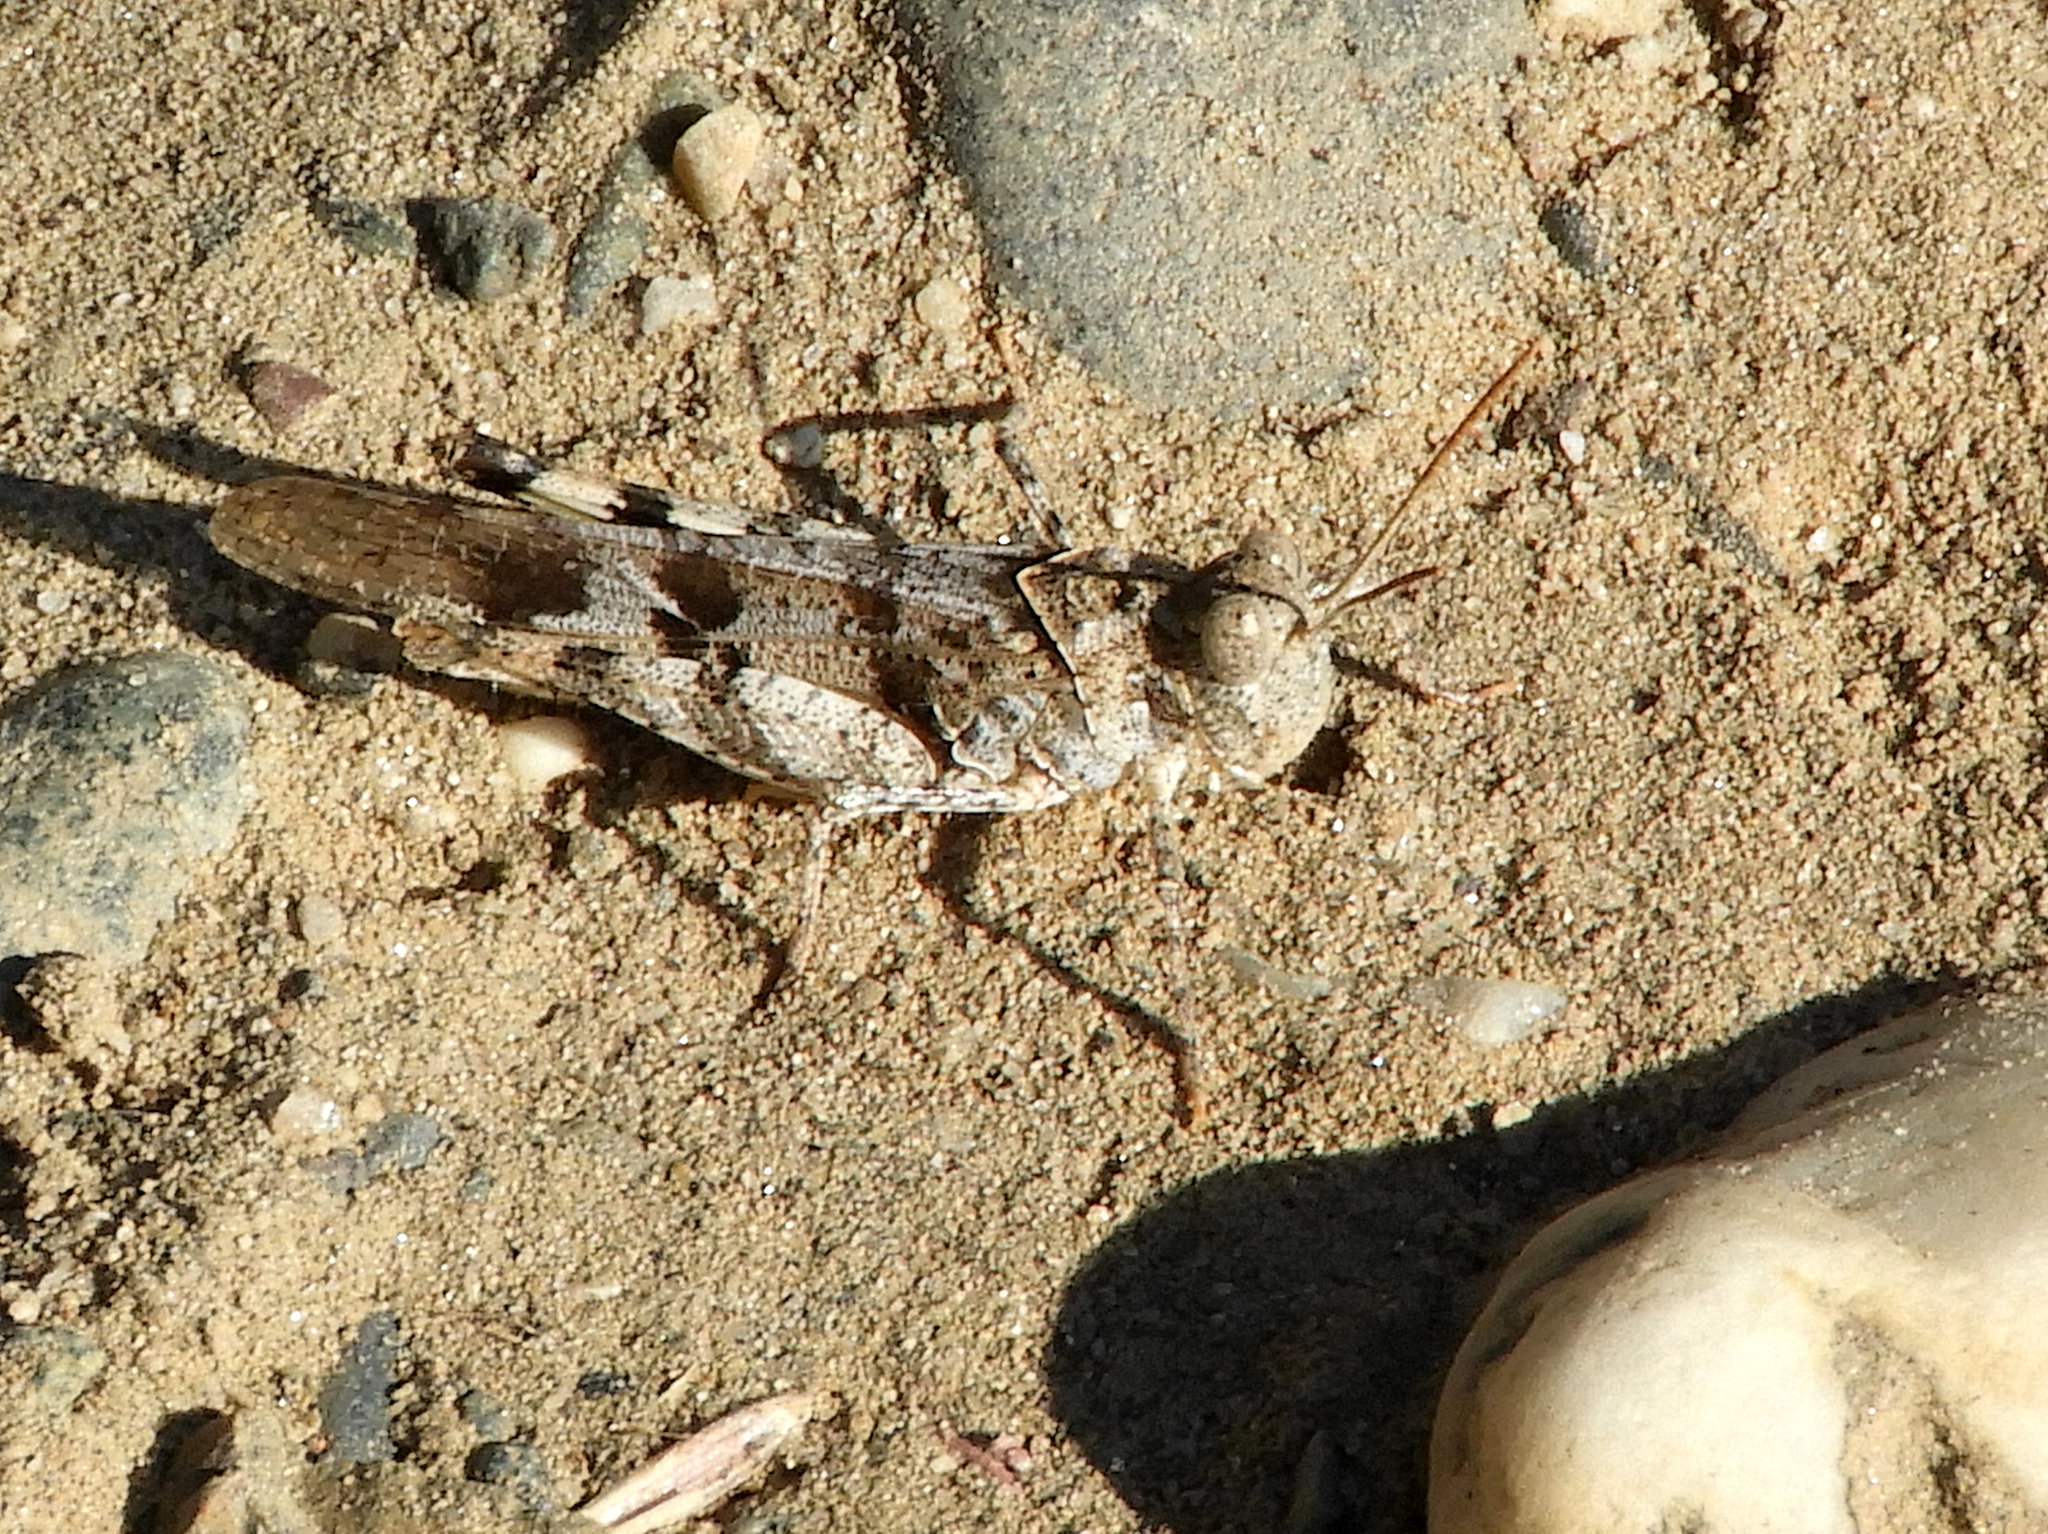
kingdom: Animalia
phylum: Arthropoda
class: Insecta
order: Orthoptera
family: Acrididae
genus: Dissosteira
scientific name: Dissosteira pictipennis
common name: California rose-winged grasshopper
